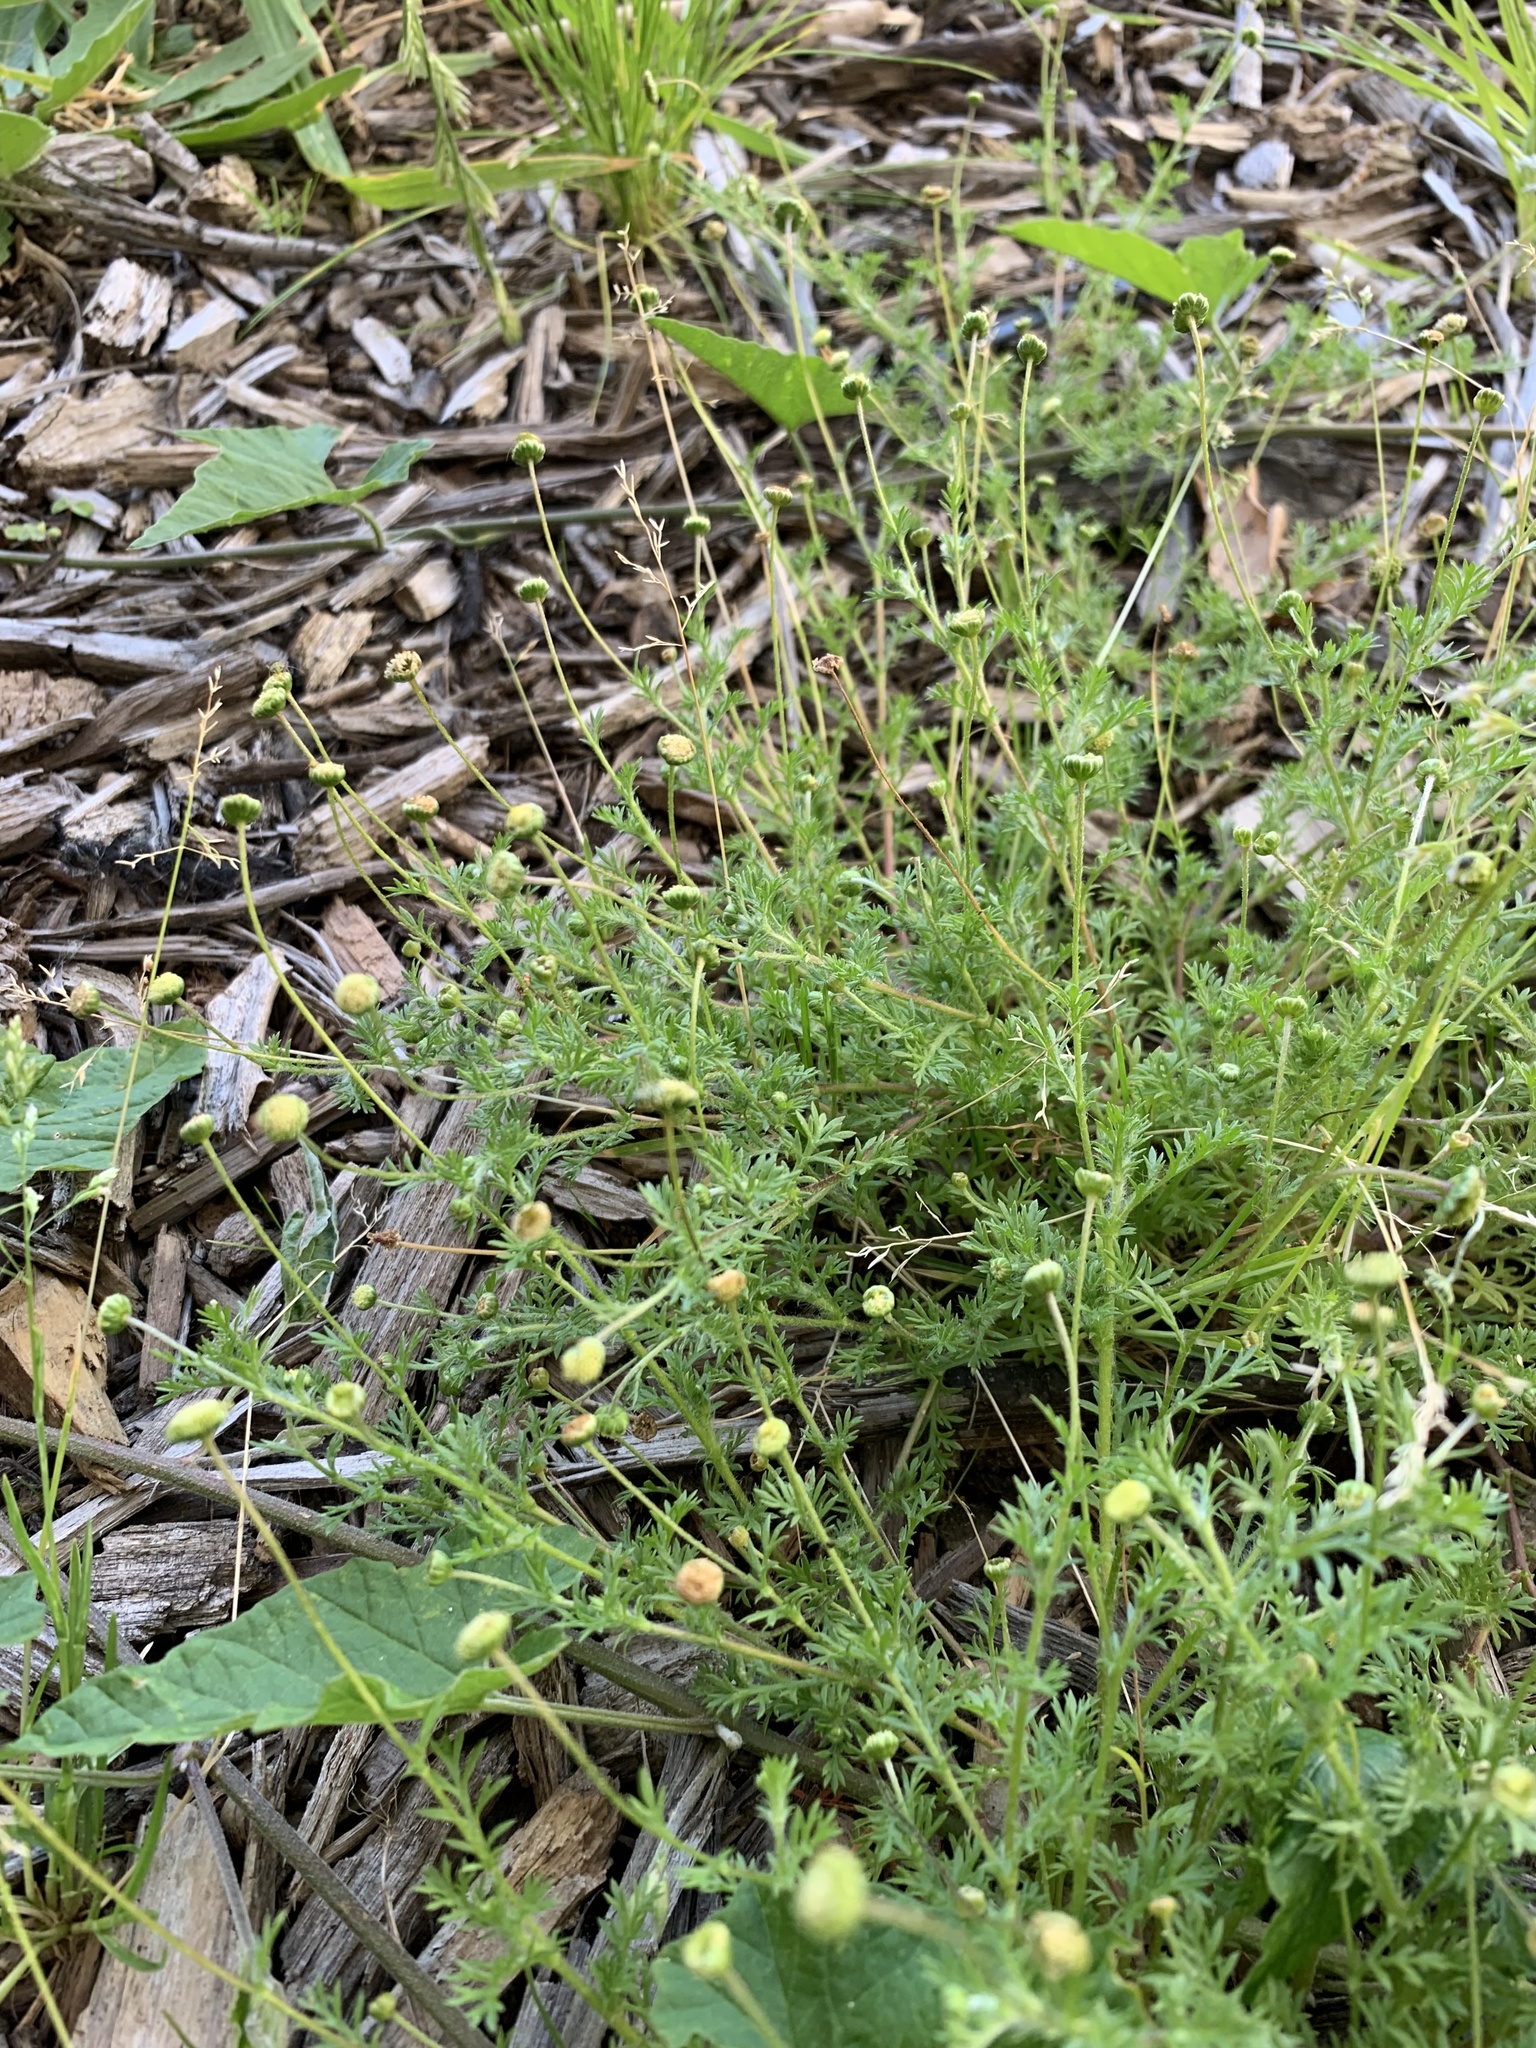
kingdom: Plantae
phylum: Tracheophyta
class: Magnoliopsida
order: Asterales
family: Asteraceae
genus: Cotula
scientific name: Cotula australis
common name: Australian waterbuttons
